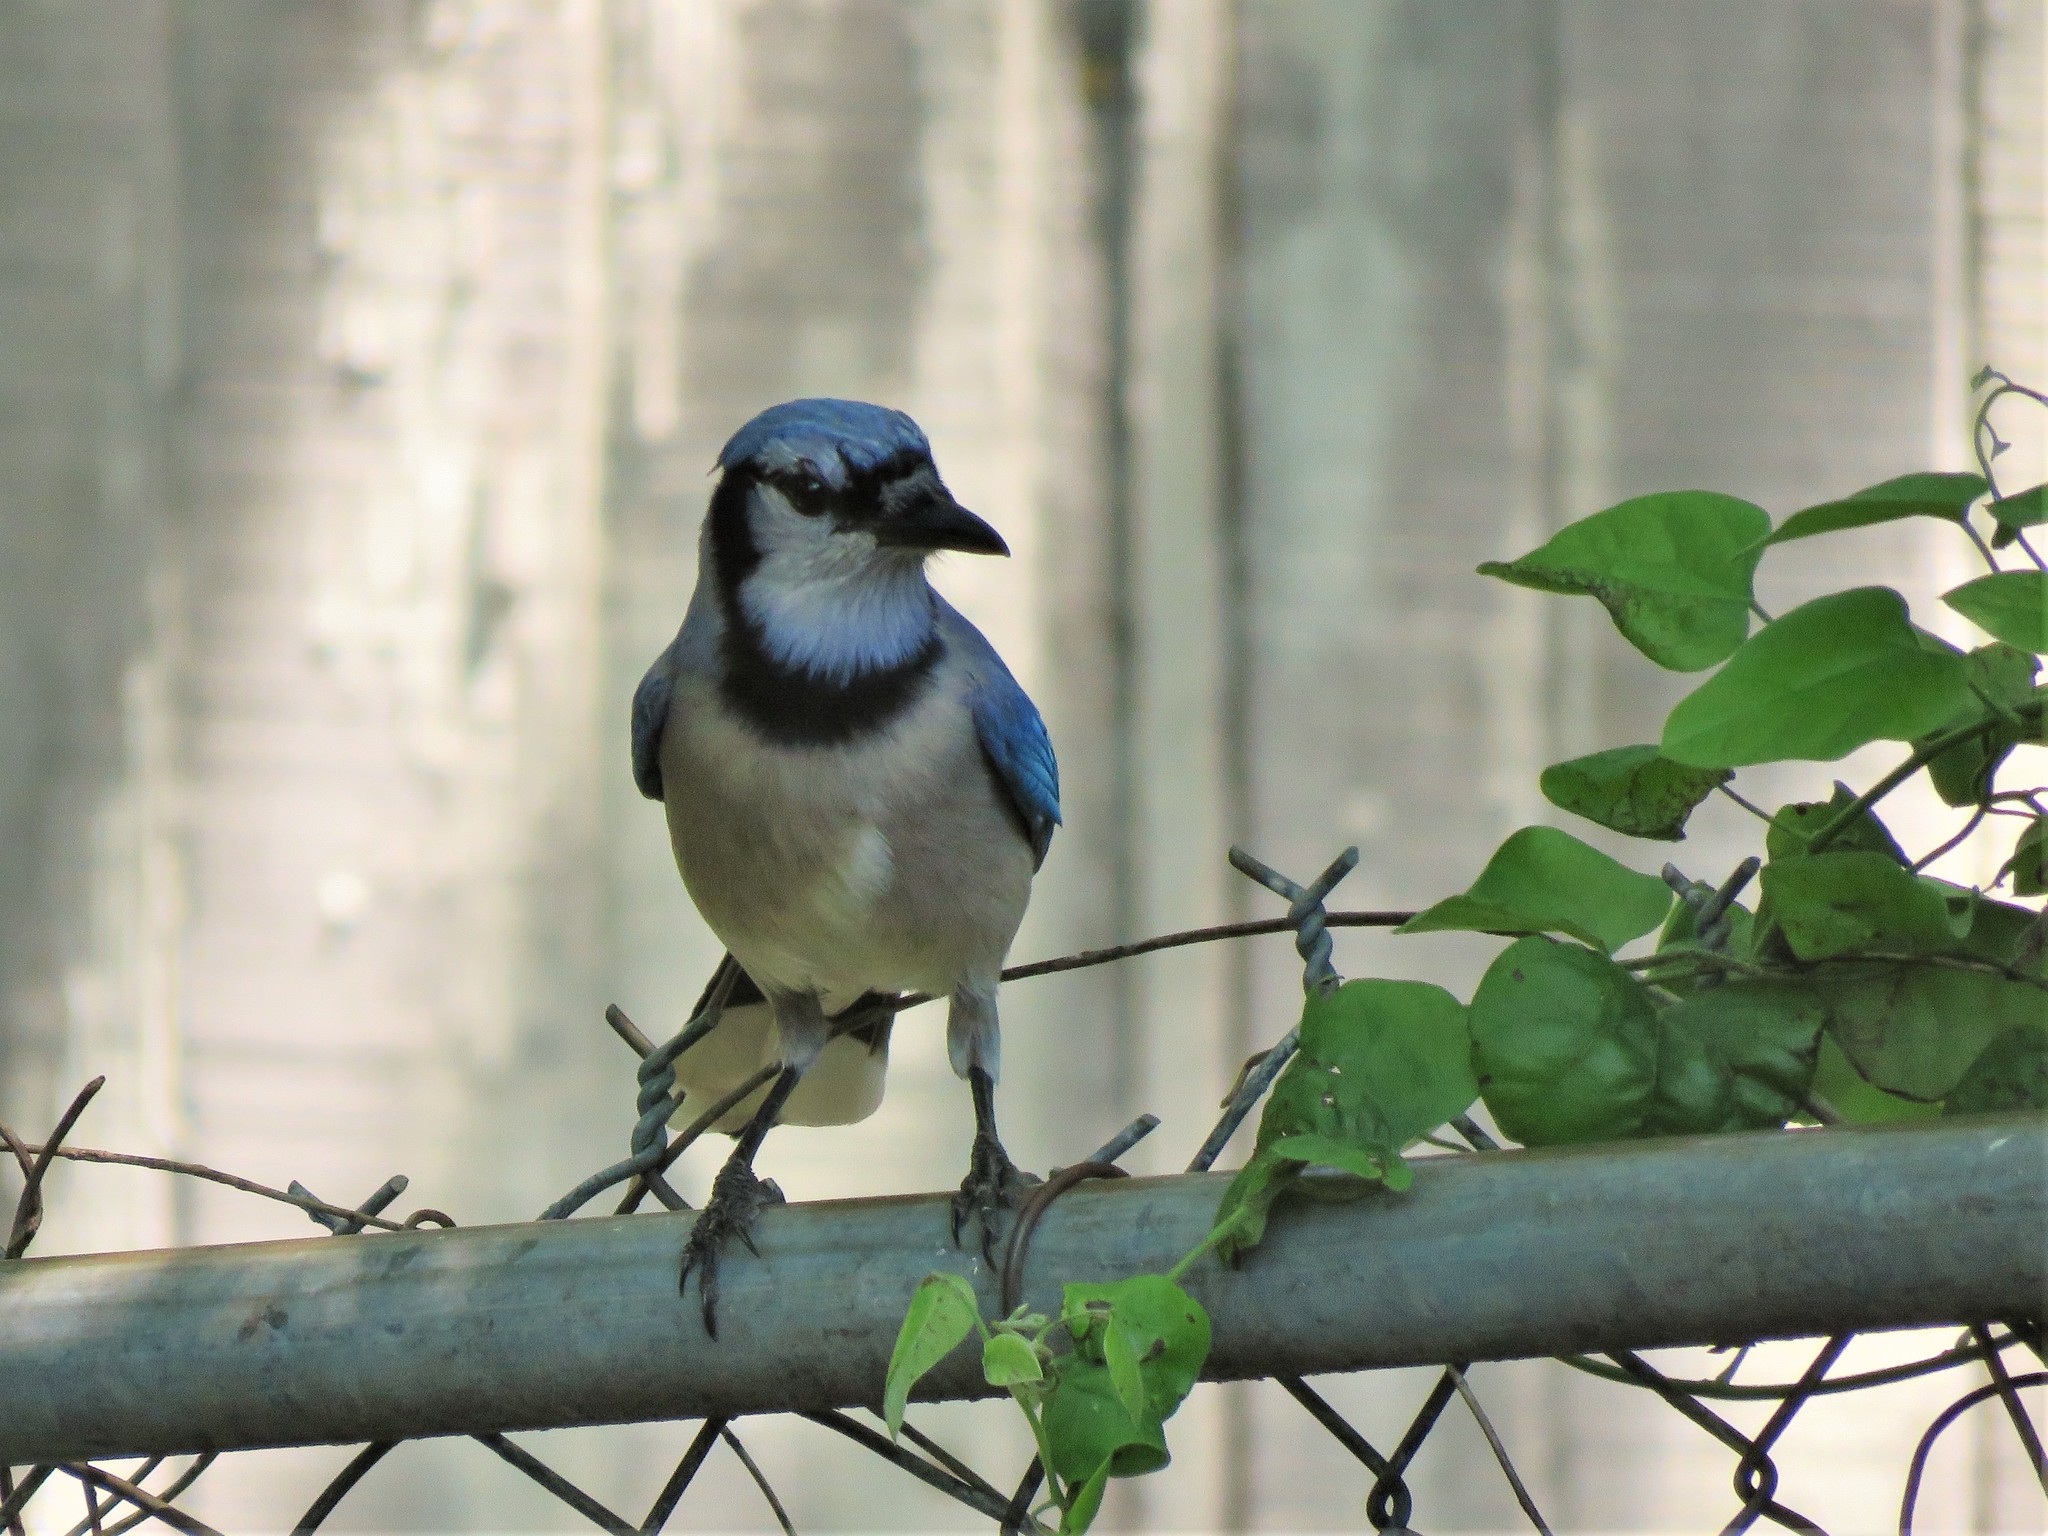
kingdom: Animalia
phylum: Chordata
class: Aves
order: Passeriformes
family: Corvidae
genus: Cyanocitta
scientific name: Cyanocitta cristata
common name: Blue jay
